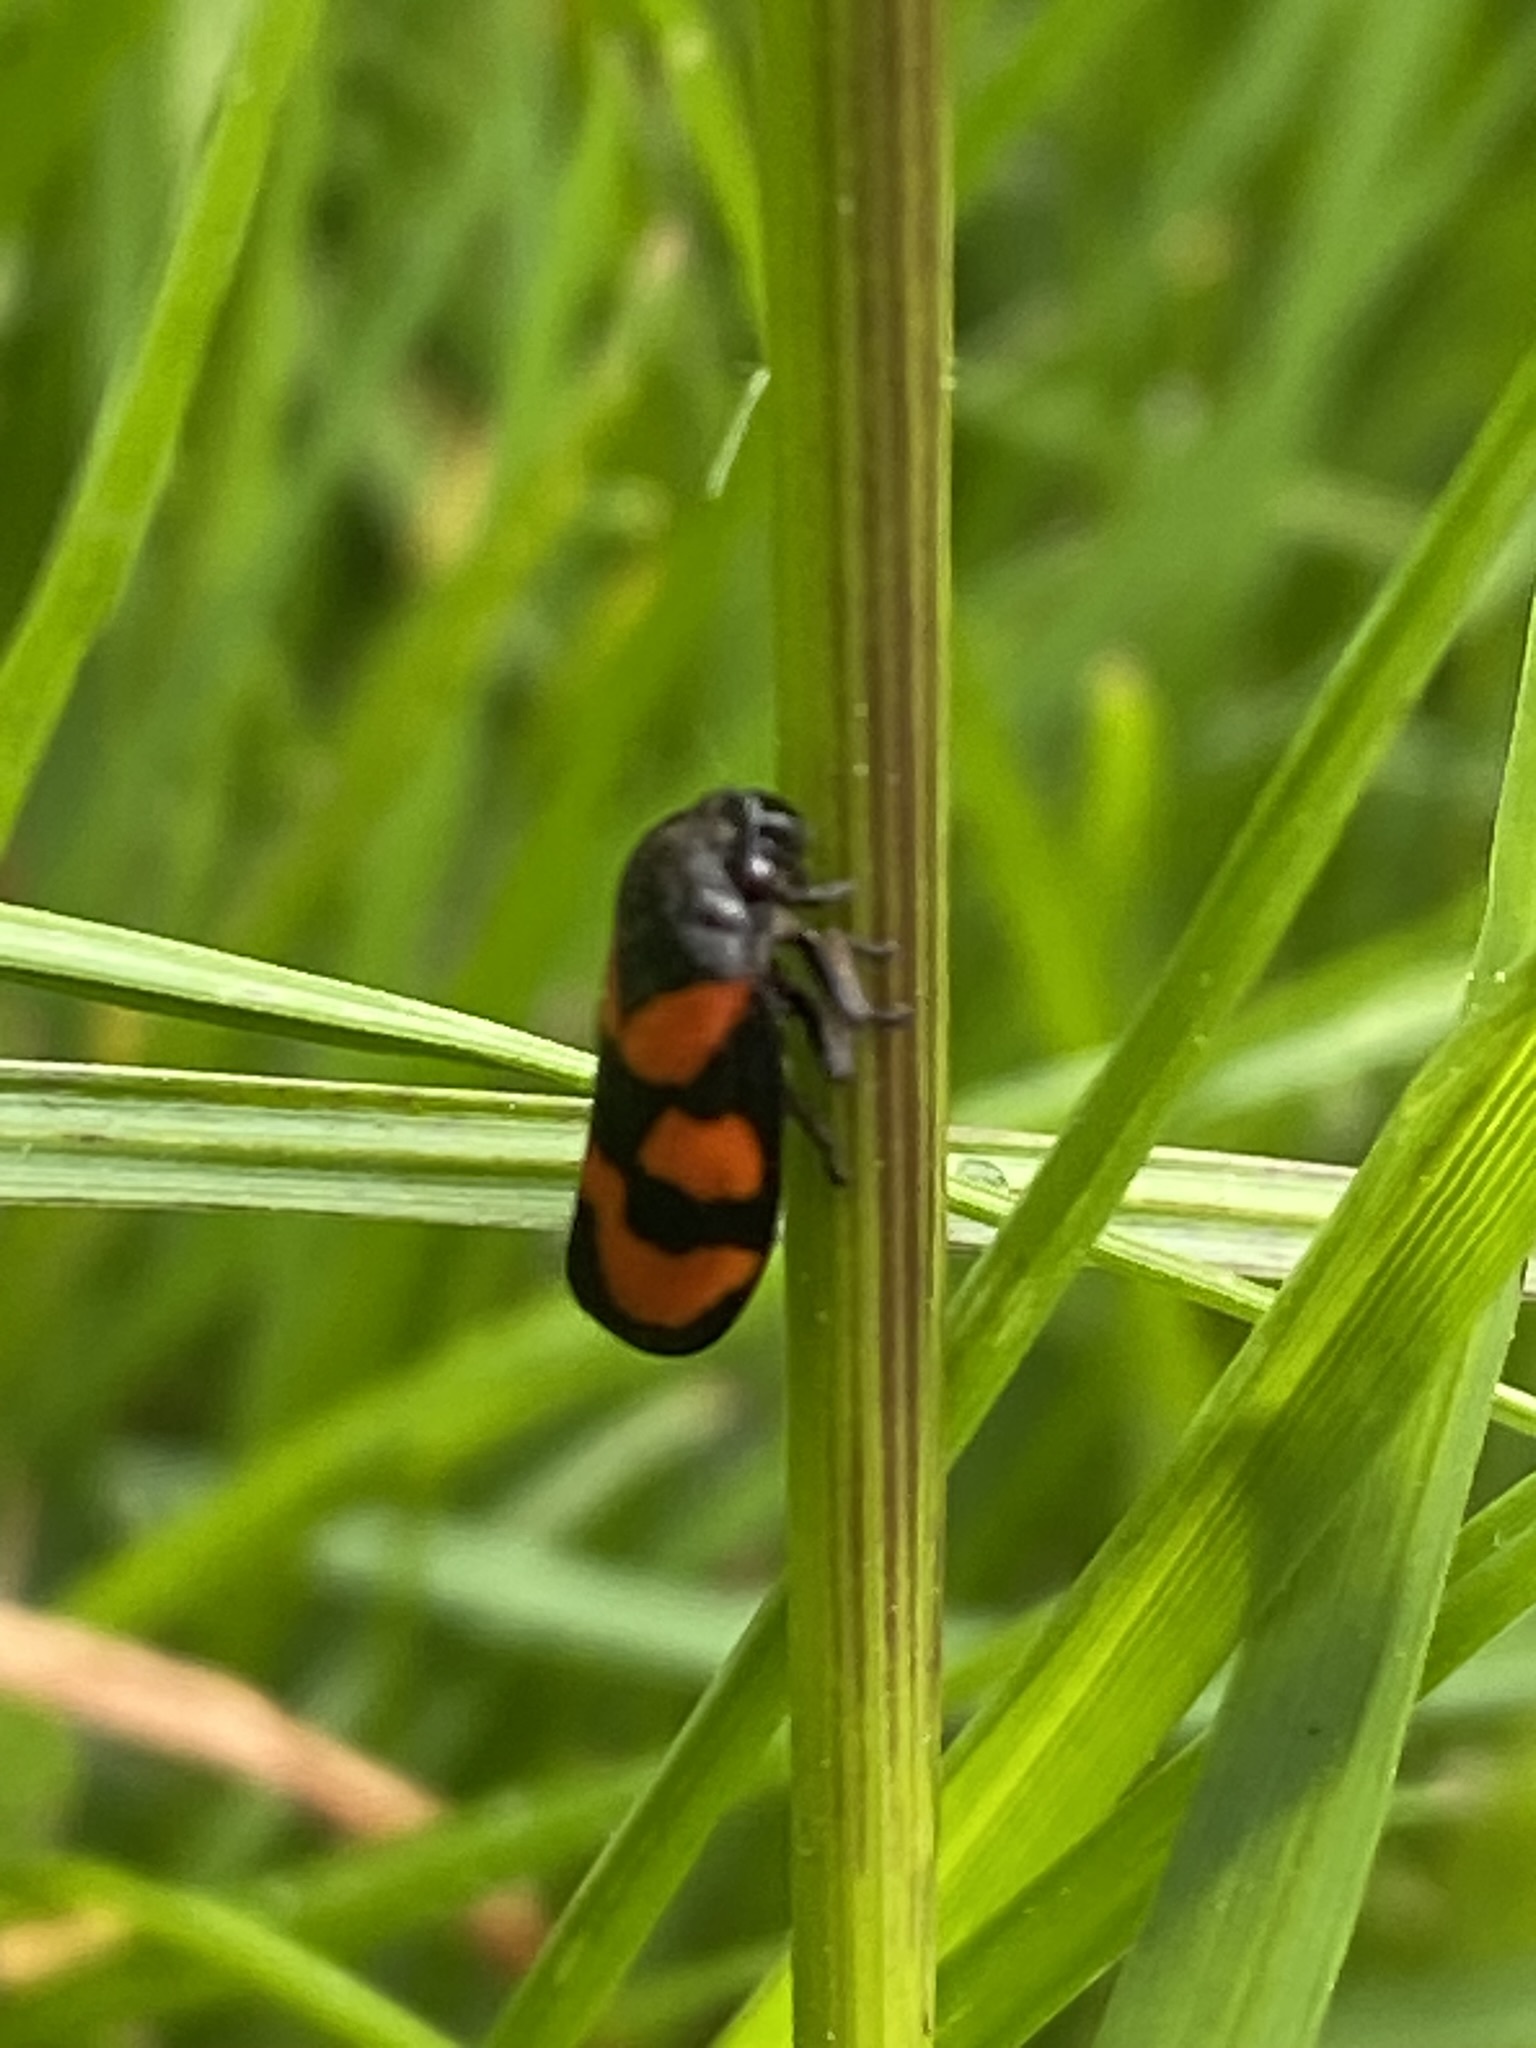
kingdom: Animalia
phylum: Arthropoda
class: Insecta
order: Hemiptera
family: Cercopidae
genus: Cercopis
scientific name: Cercopis vulnerata
